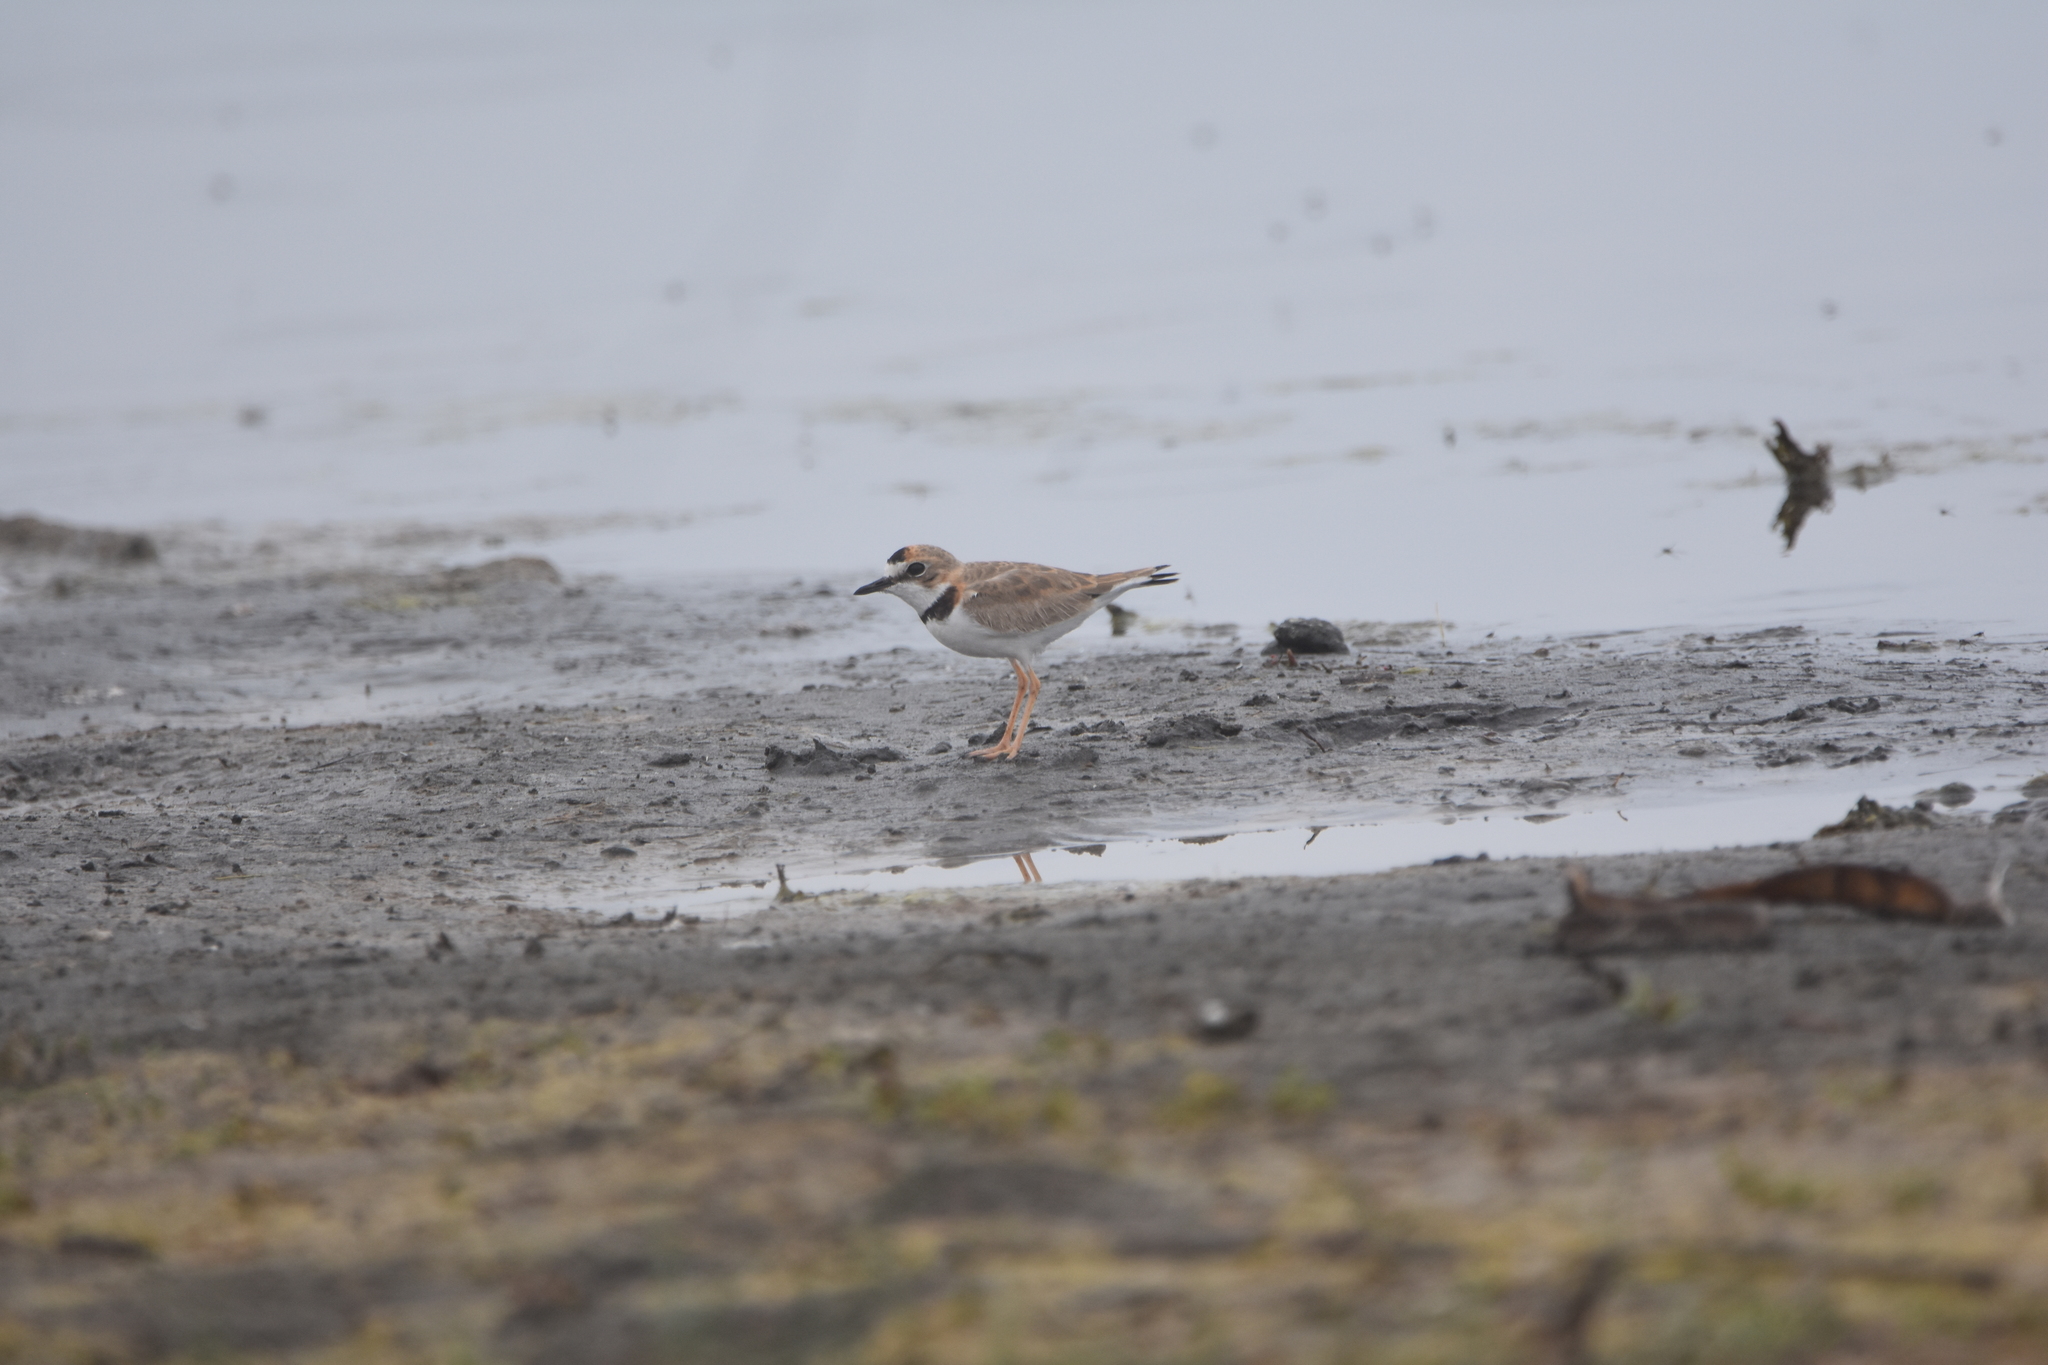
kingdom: Animalia
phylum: Chordata
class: Aves
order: Charadriiformes
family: Charadriidae
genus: Anarhynchus
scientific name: Anarhynchus
